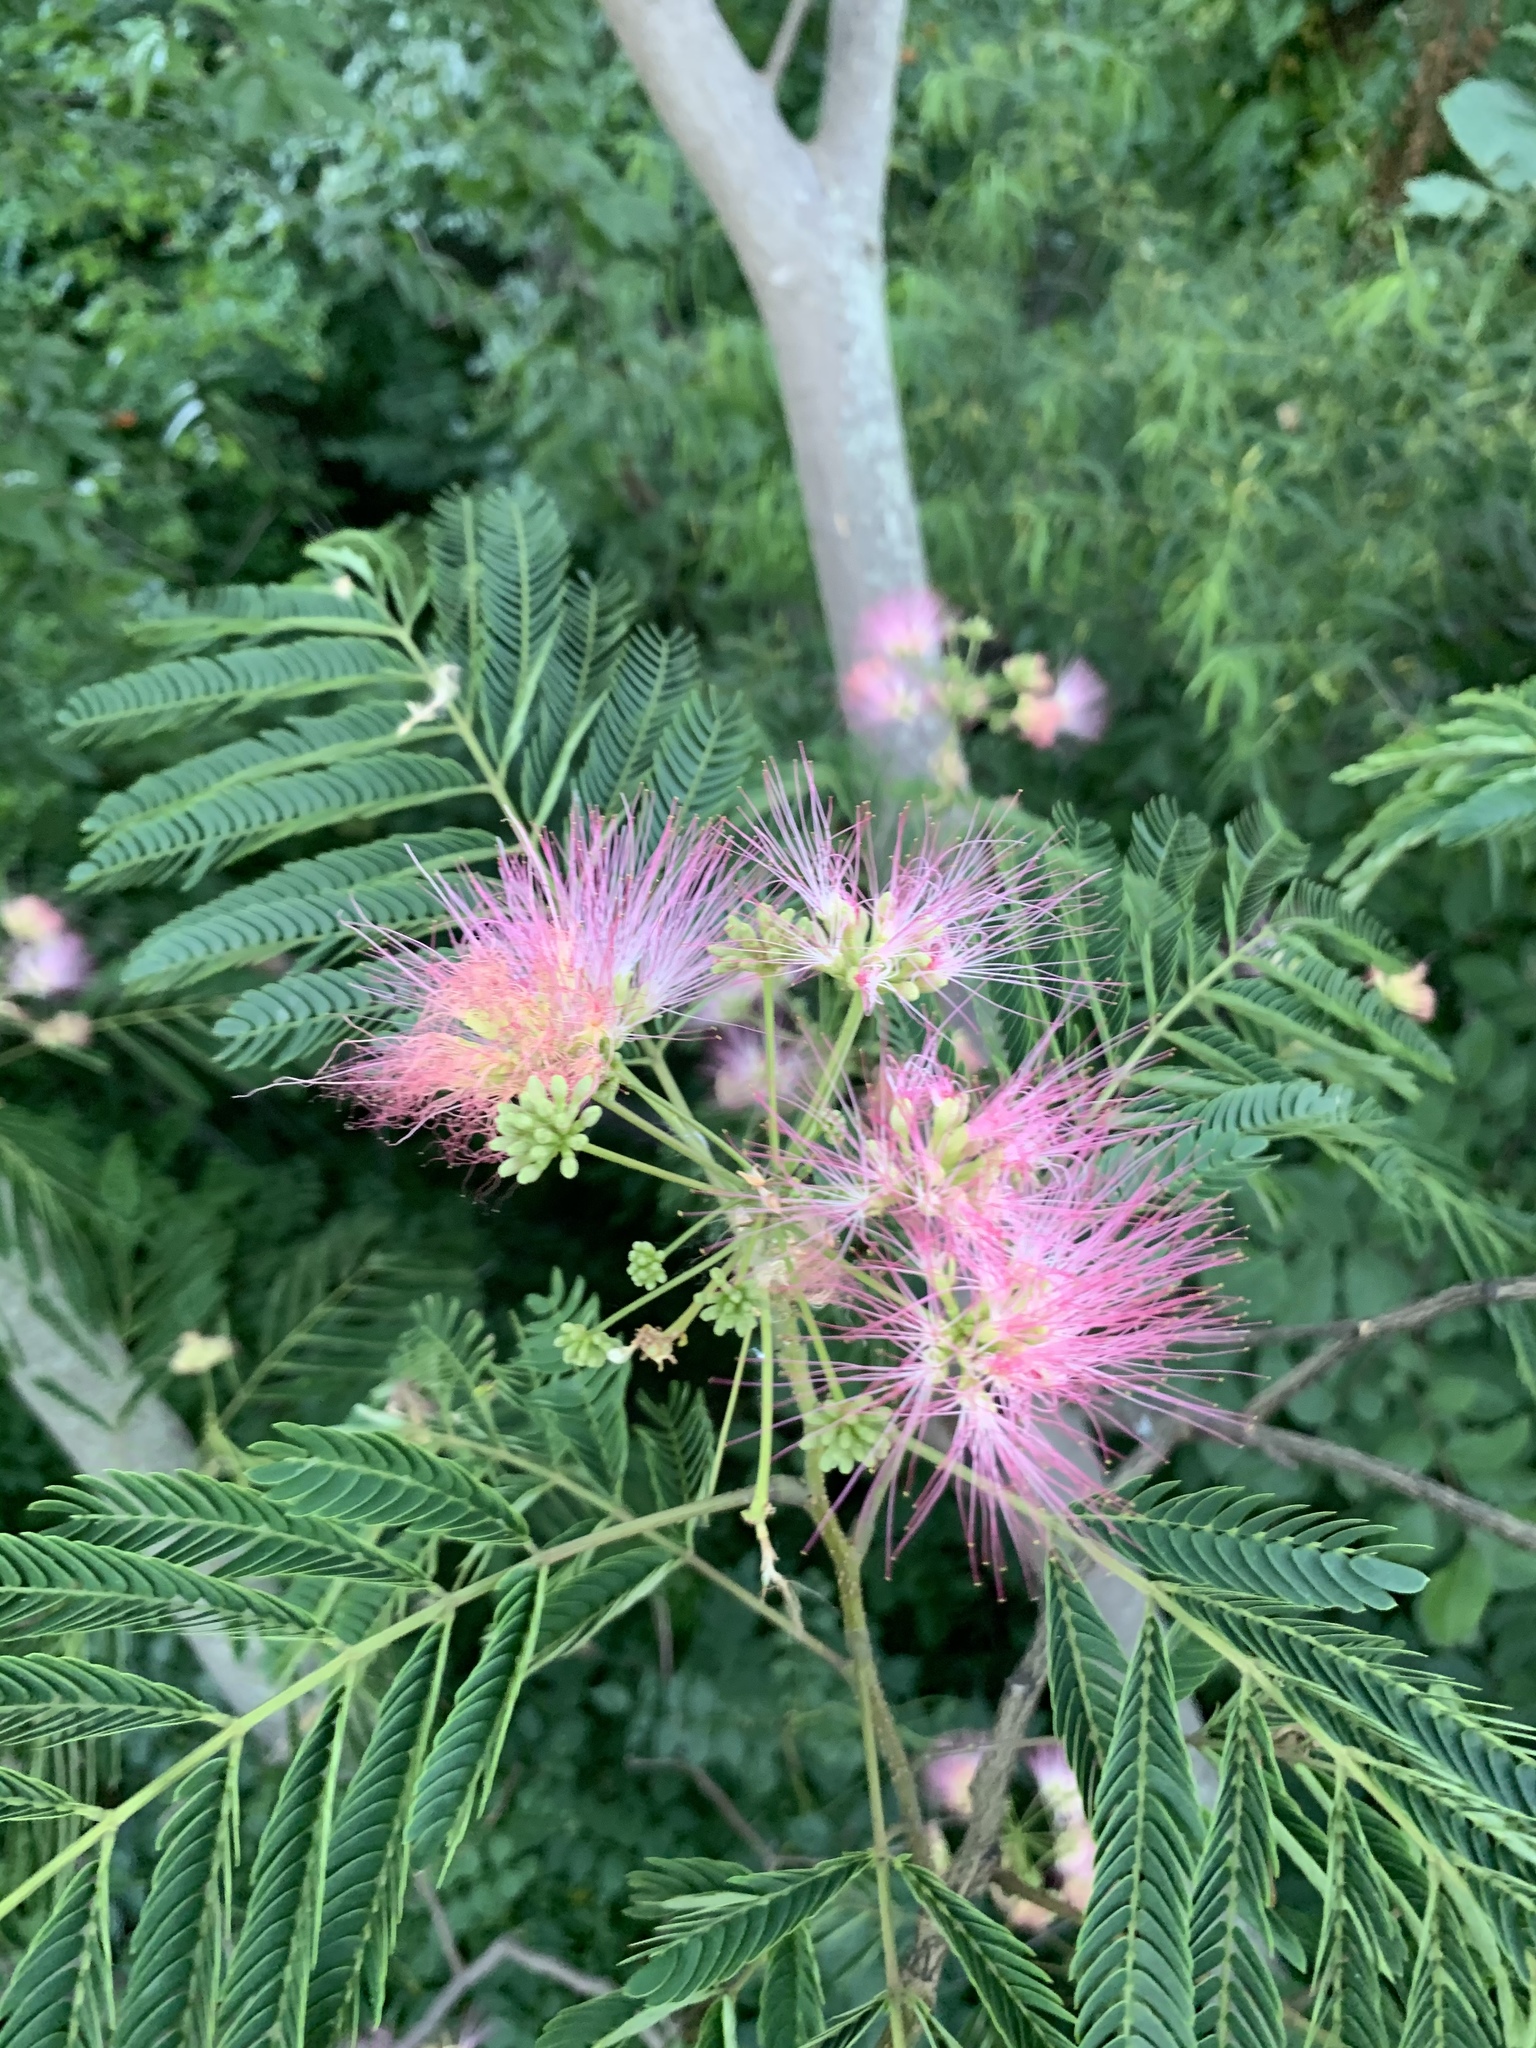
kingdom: Plantae
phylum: Tracheophyta
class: Magnoliopsida
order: Fabales
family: Fabaceae
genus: Albizia
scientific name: Albizia julibrissin
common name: Silktree
